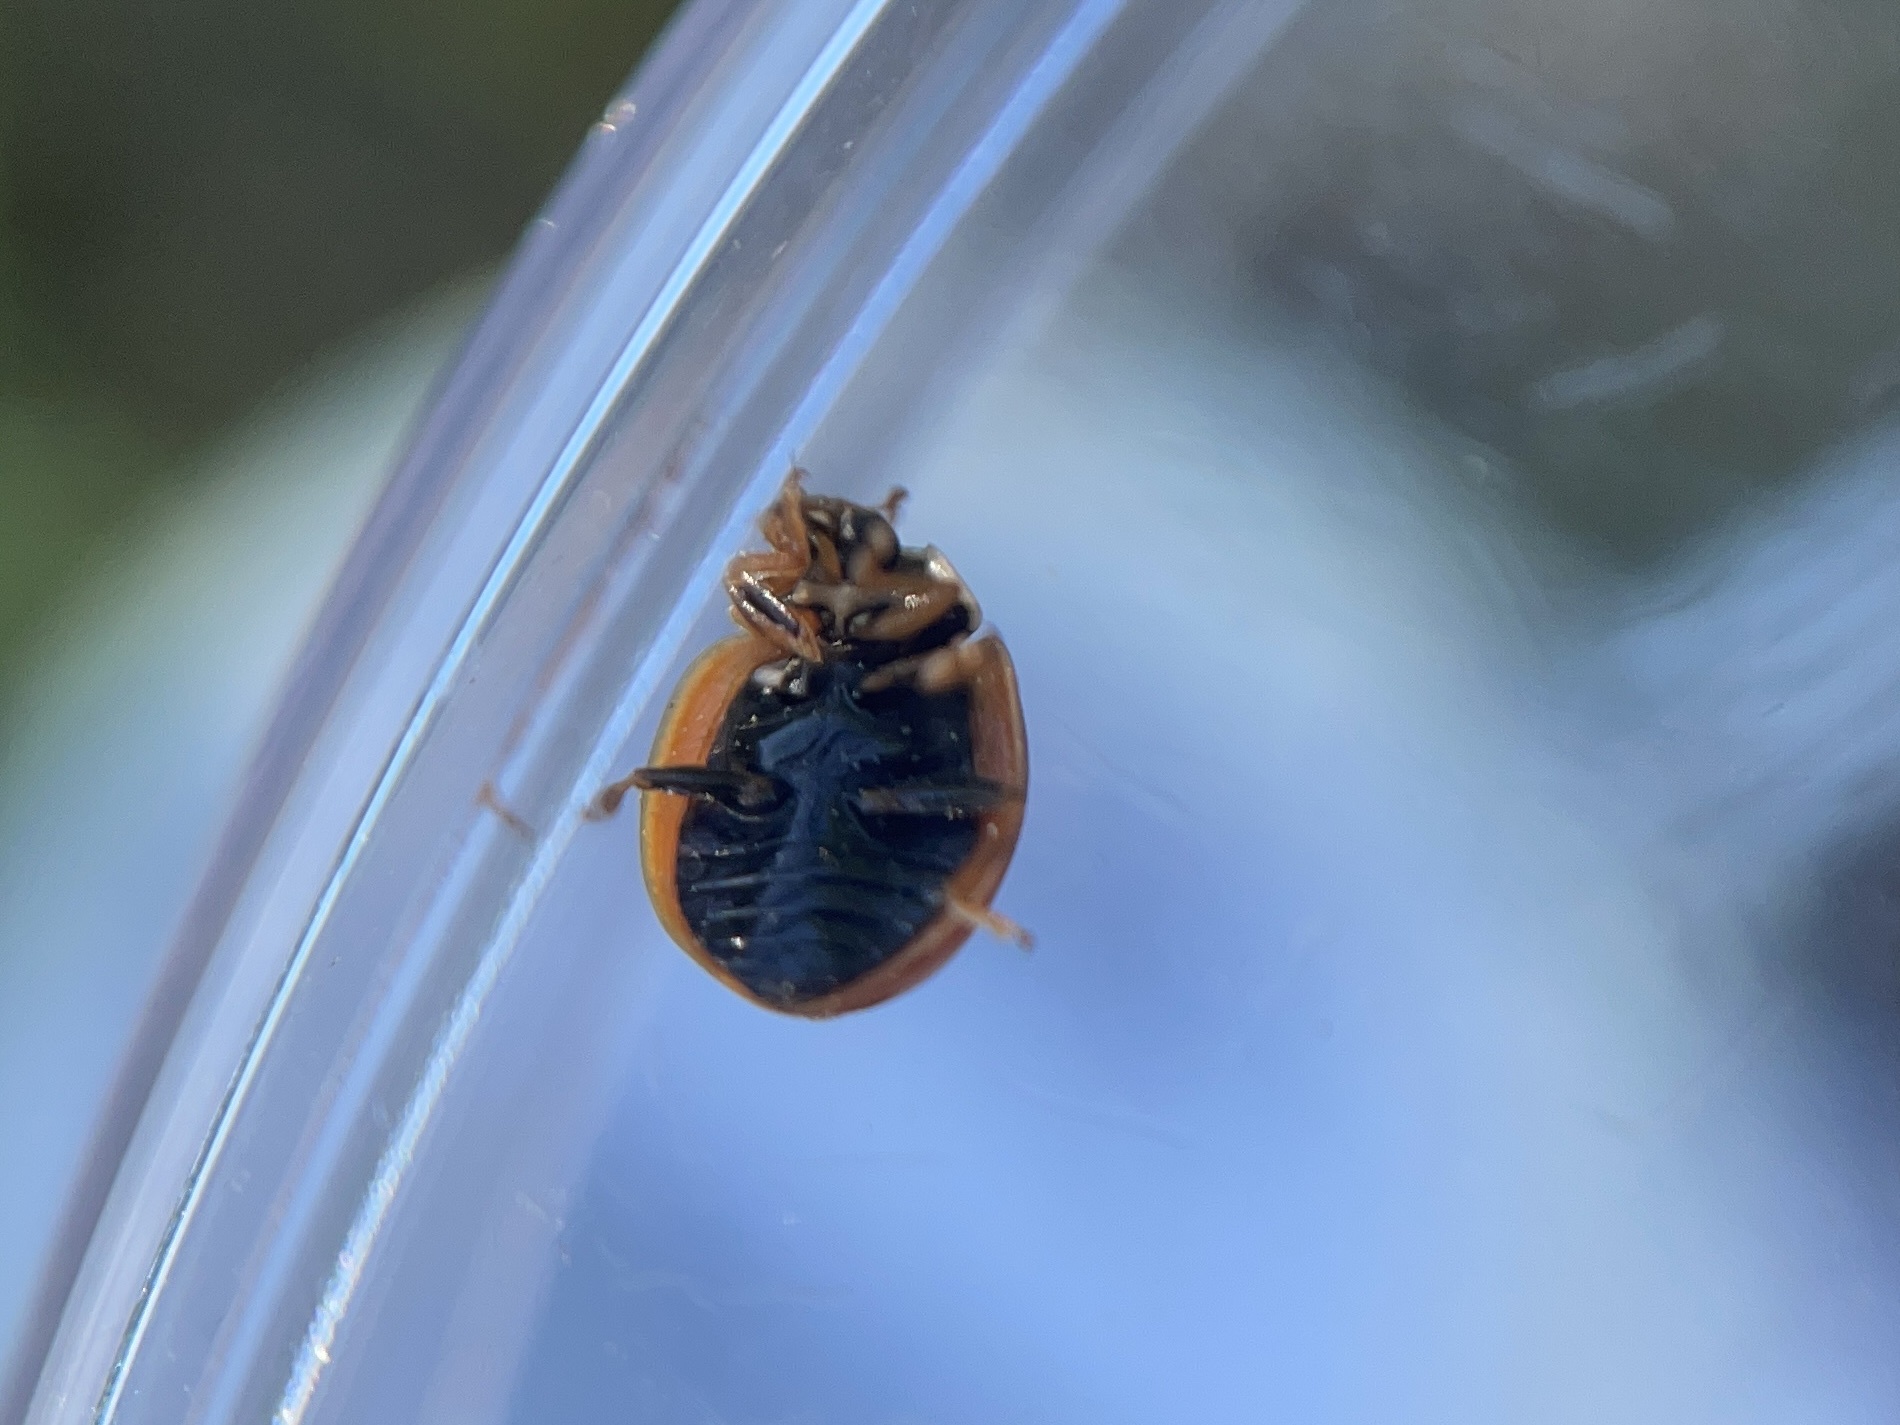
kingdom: Animalia
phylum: Arthropoda
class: Insecta
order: Coleoptera
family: Coccinellidae
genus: Cycloneda
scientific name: Cycloneda munda
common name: Polished lady beetle
